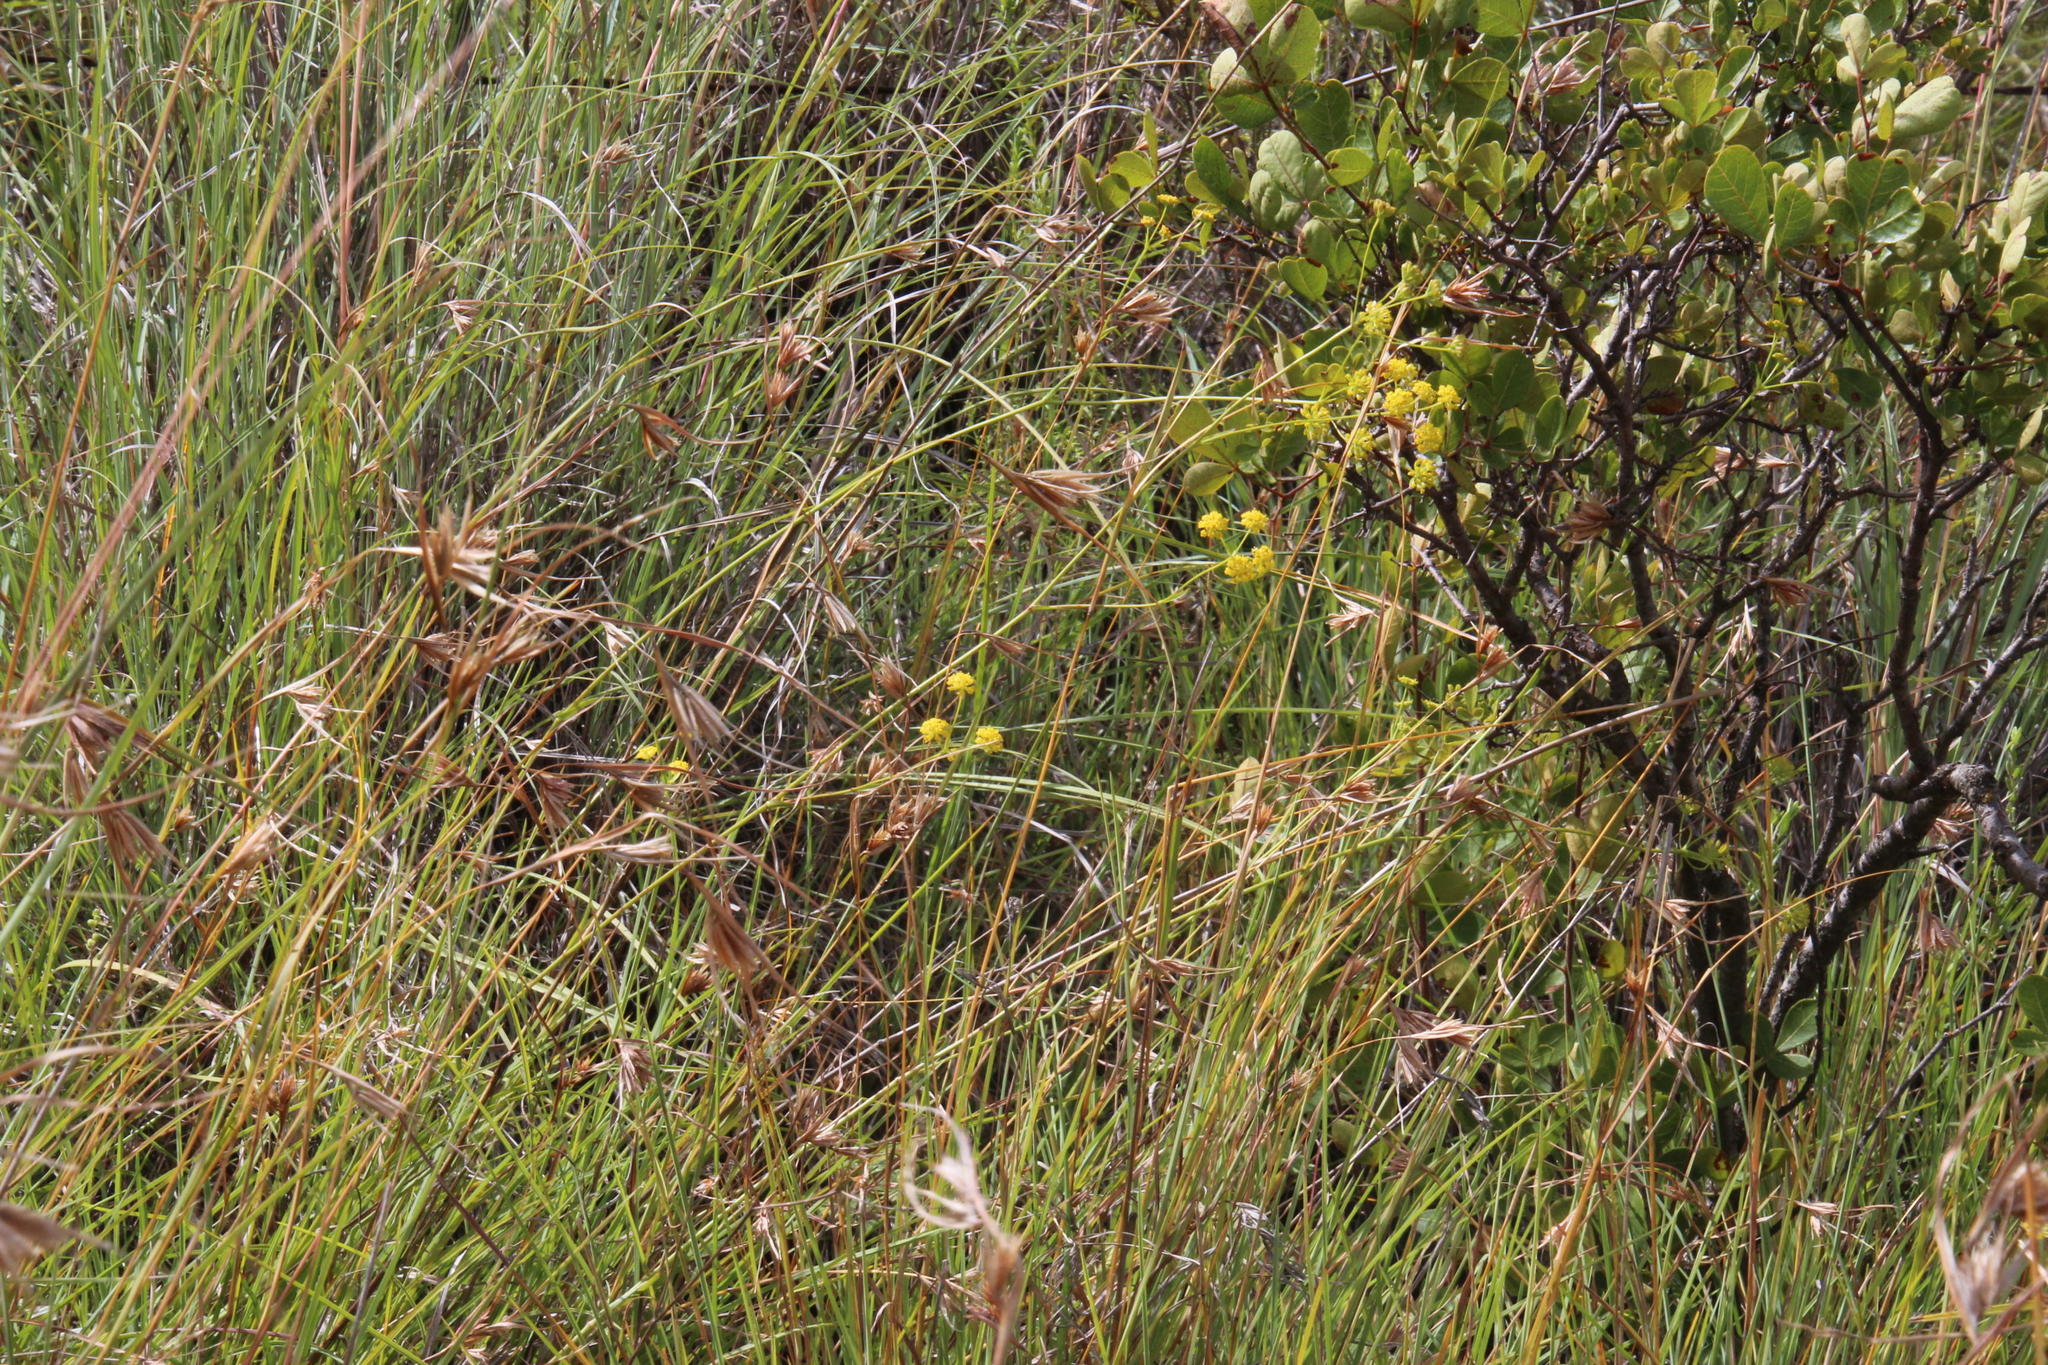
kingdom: Plantae
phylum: Tracheophyta
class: Magnoliopsida
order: Apiales
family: Apiaceae
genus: Bupleurum
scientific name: Bupleurum mundii
